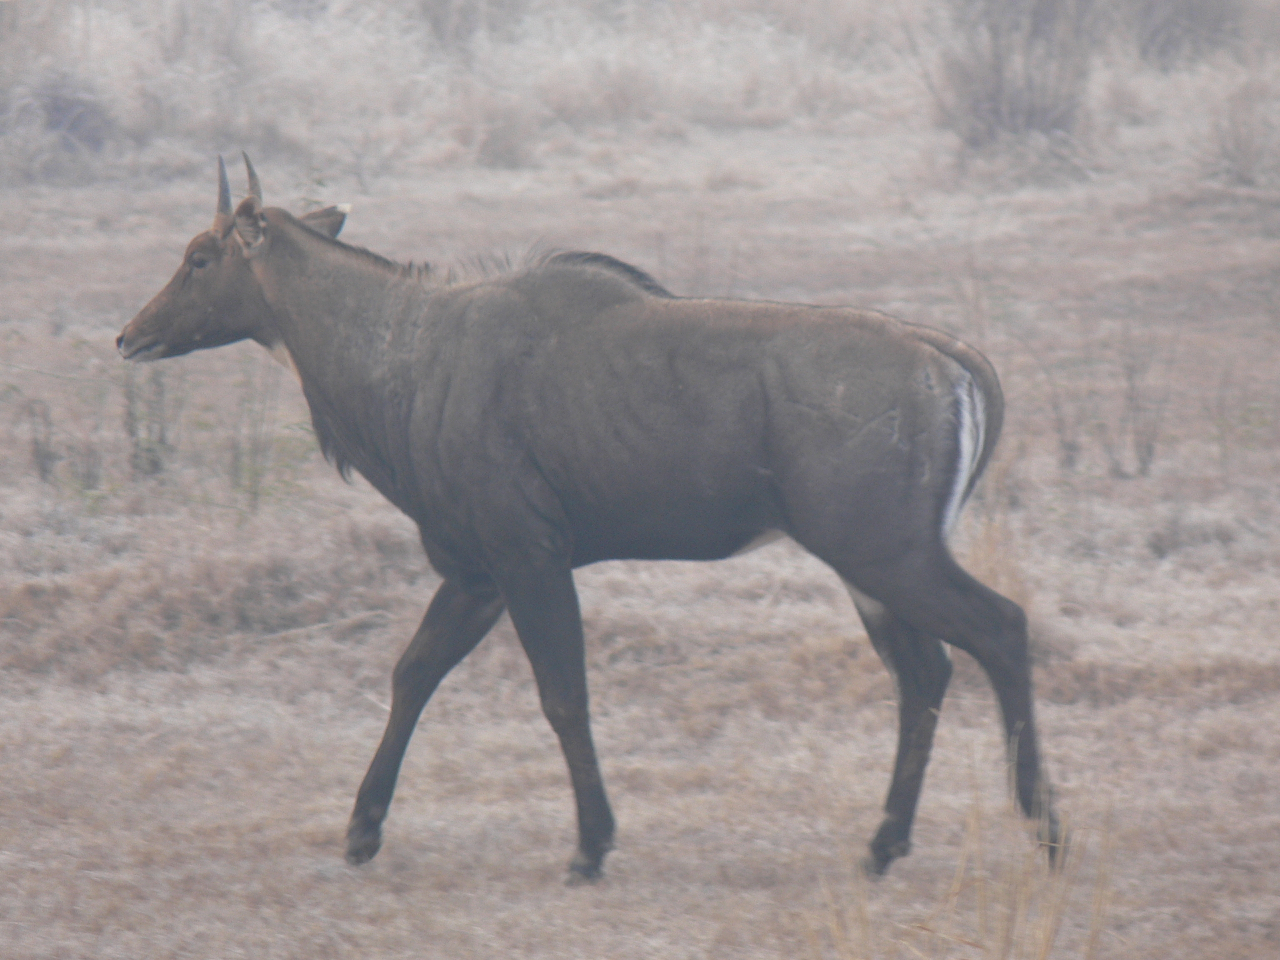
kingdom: Animalia
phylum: Chordata
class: Mammalia
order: Artiodactyla
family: Bovidae
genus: Boselaphus
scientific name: Boselaphus tragocamelus
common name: Nilgai
